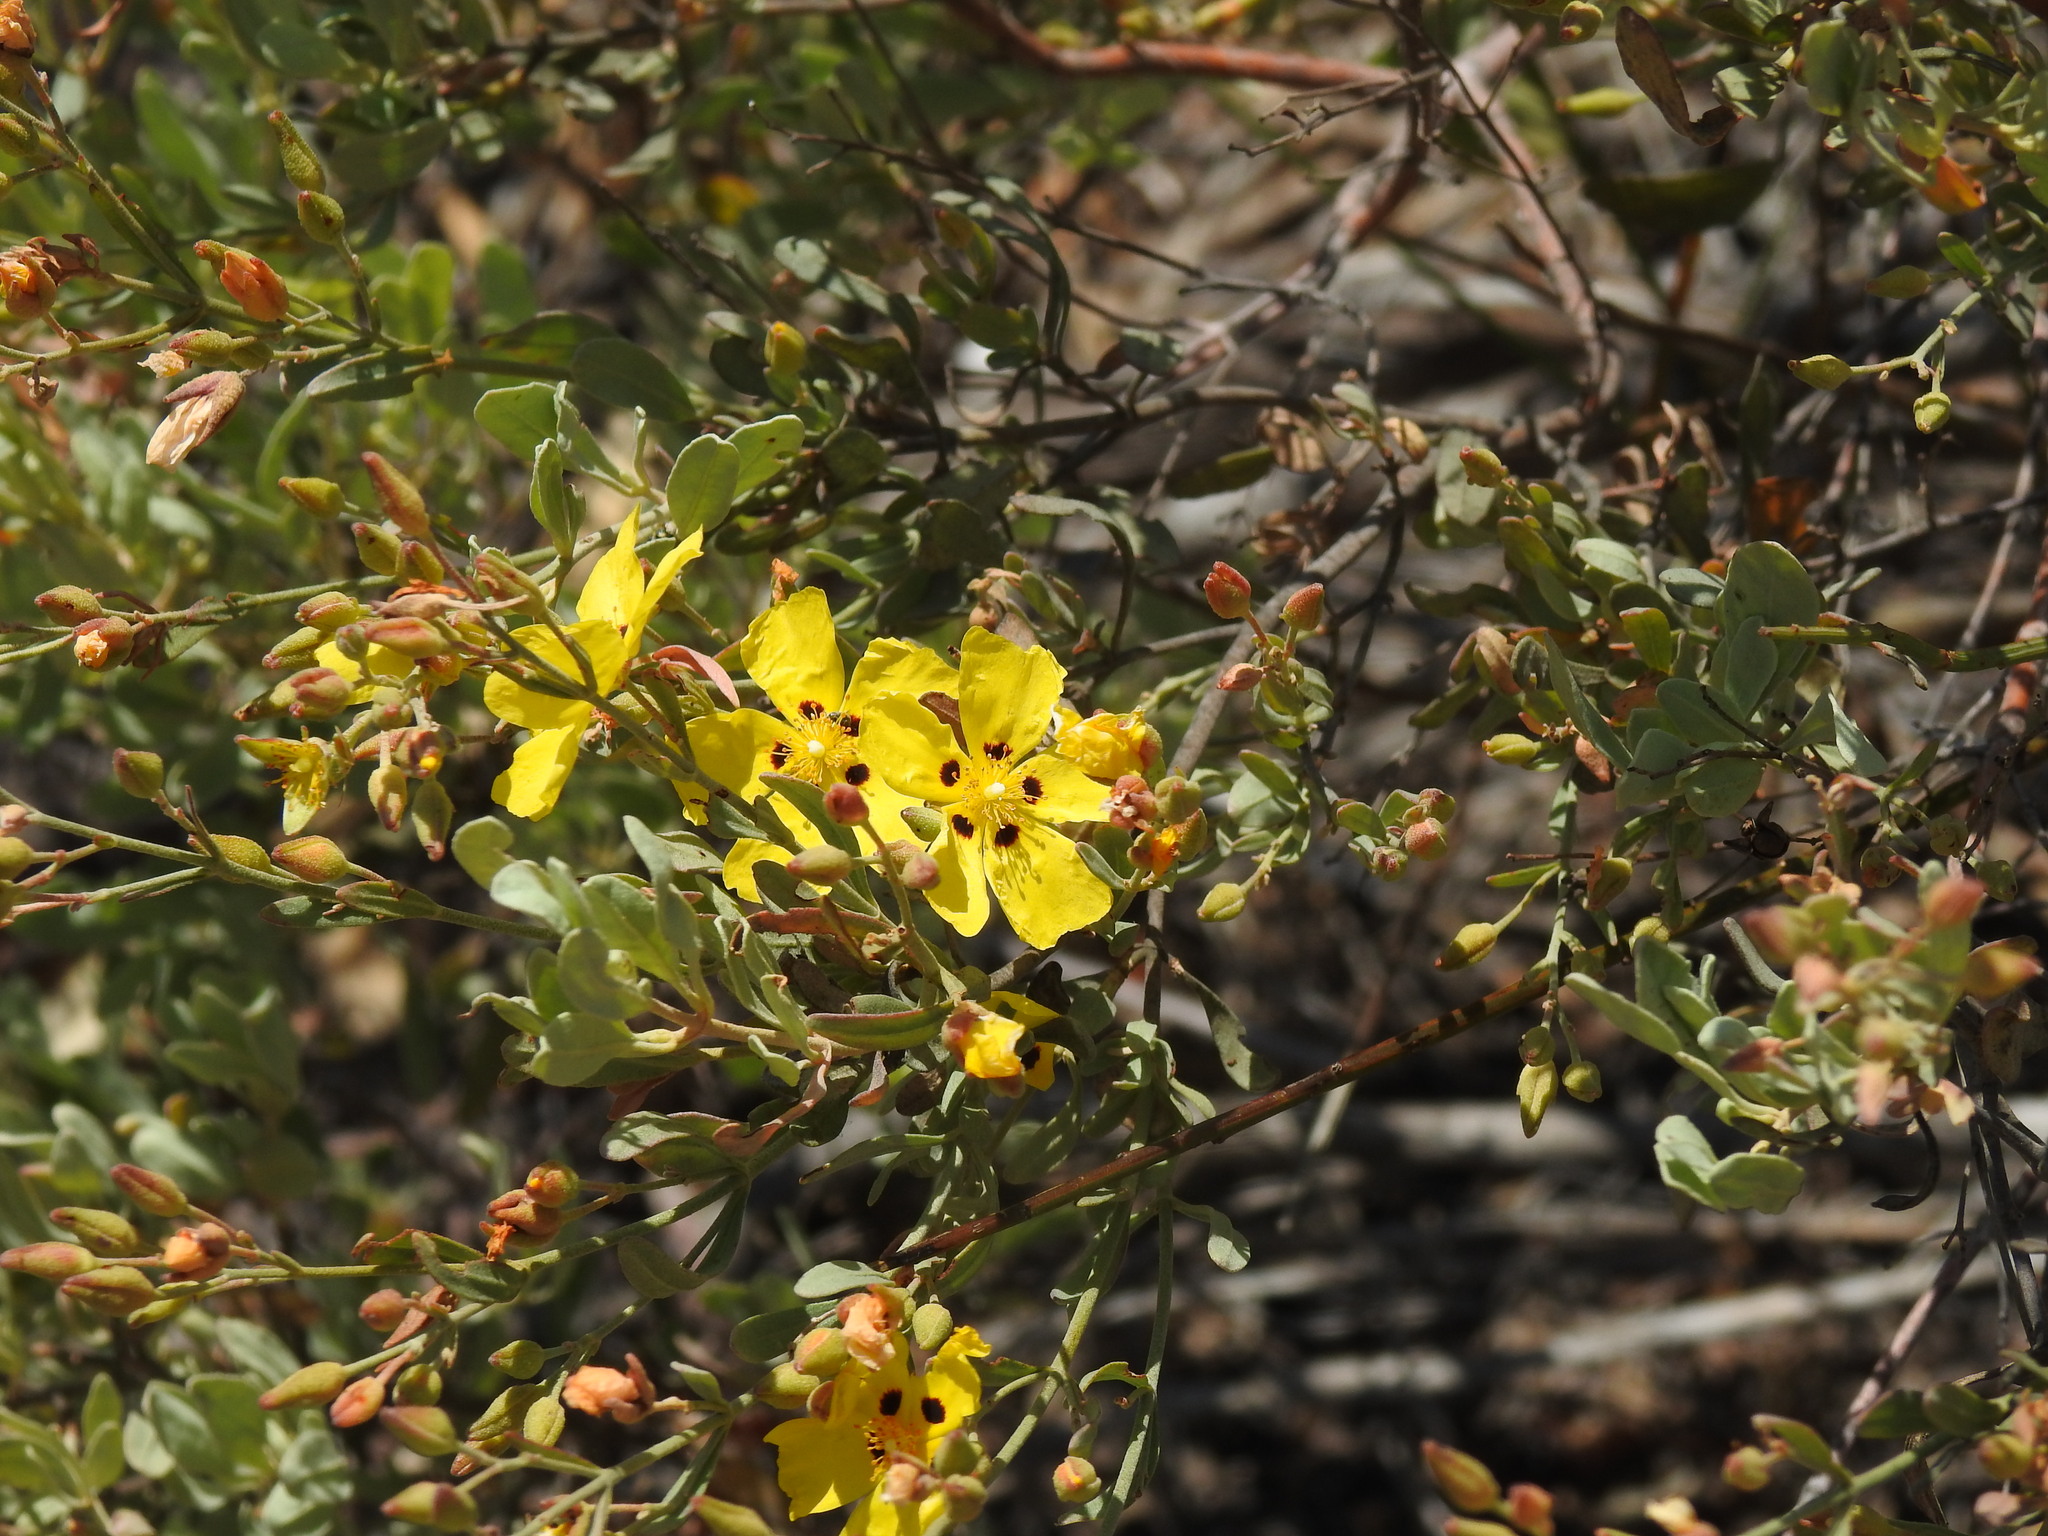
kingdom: Plantae
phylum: Tracheophyta
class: Magnoliopsida
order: Malvales
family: Cistaceae
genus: Halimium
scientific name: Halimium halimifolium
